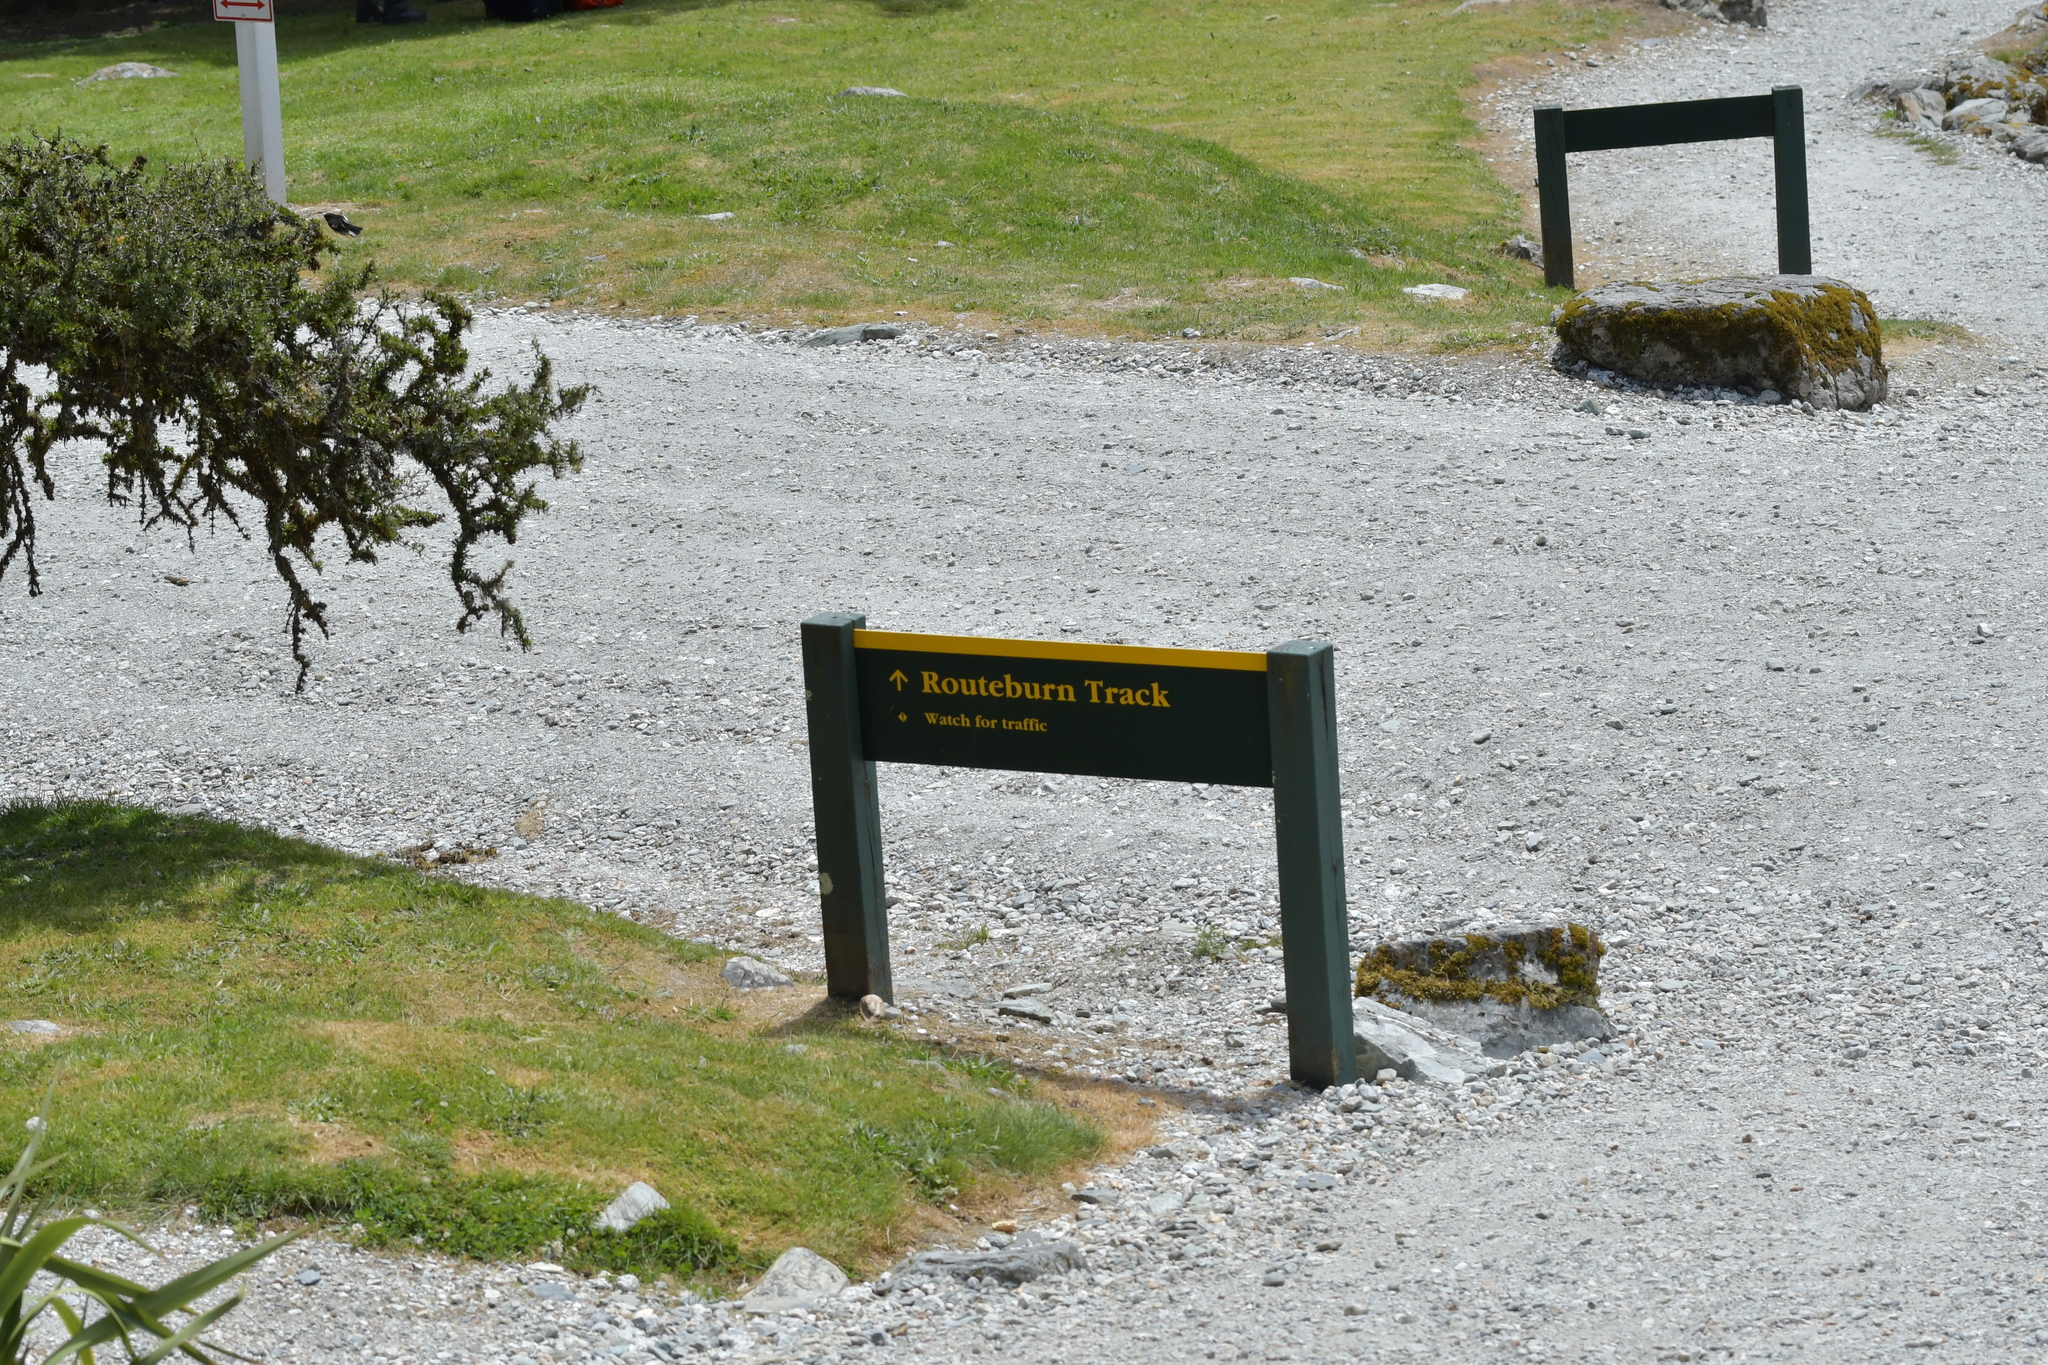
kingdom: Animalia
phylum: Chordata
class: Aves
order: Passeriformes
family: Petroicidae
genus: Petroica
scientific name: Petroica macrocephala
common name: Tomtit
